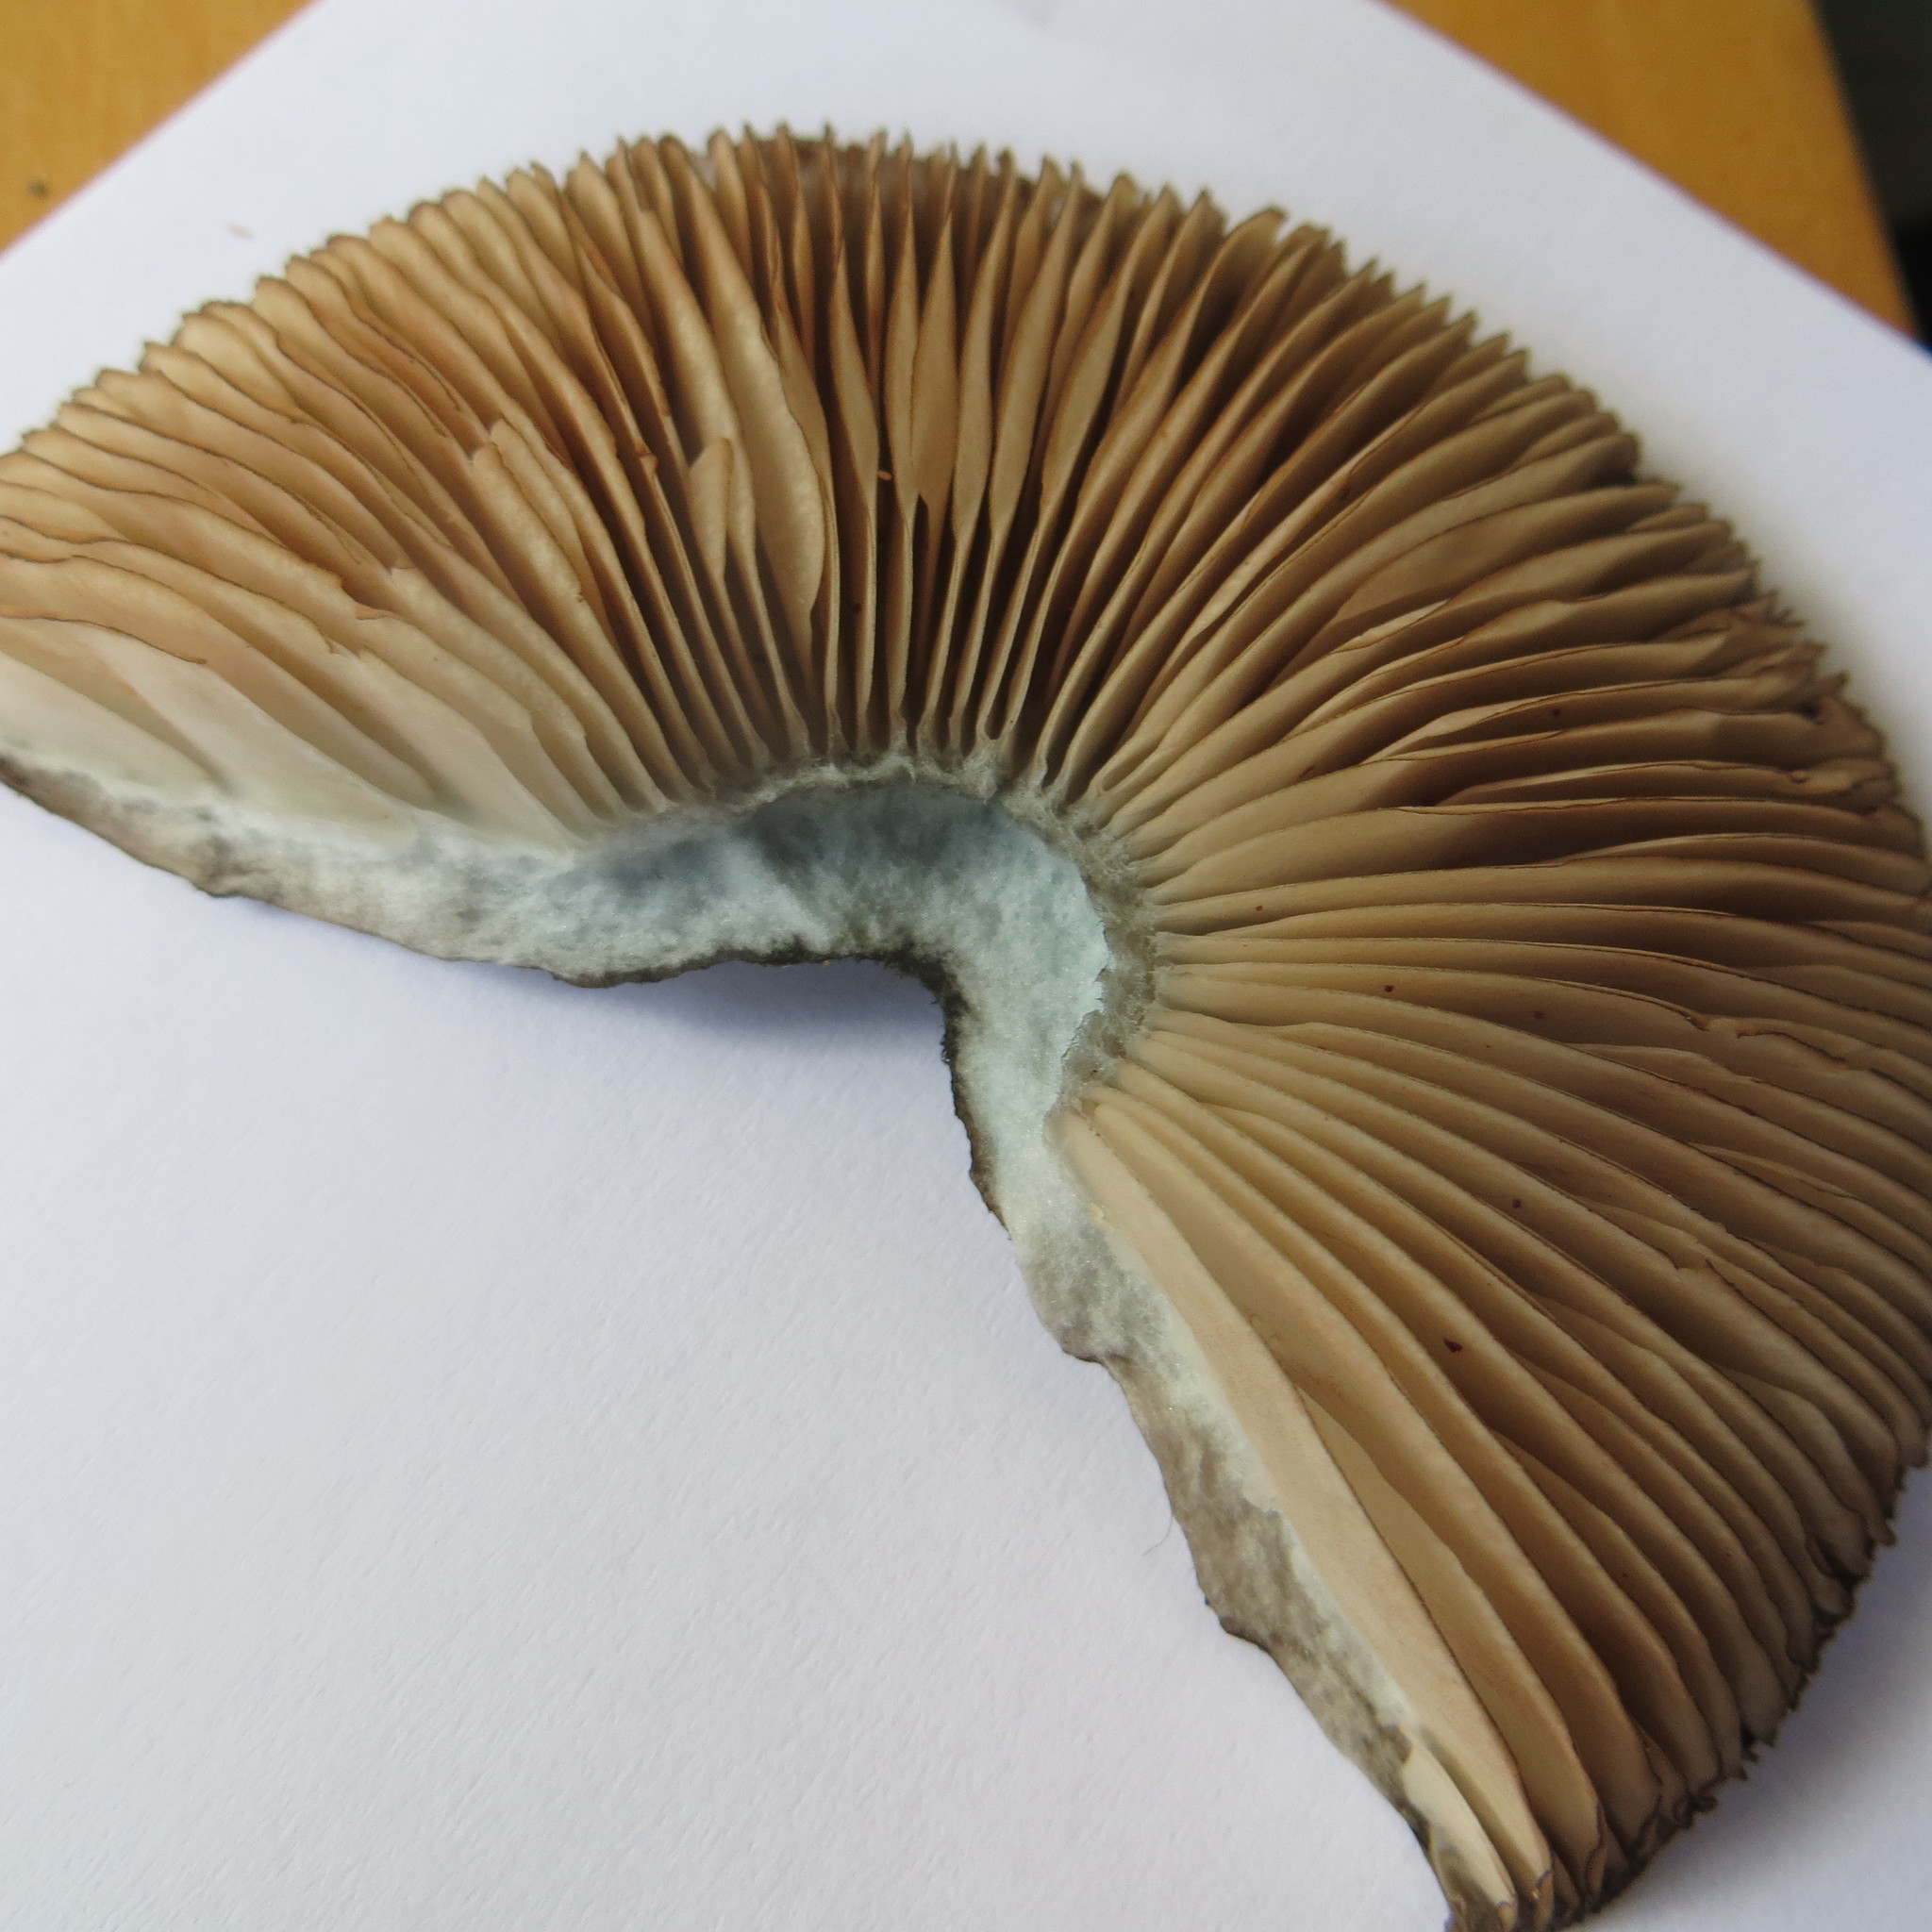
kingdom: Fungi
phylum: Basidiomycota
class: Agaricomycetes
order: Agaricales
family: Pluteaceae
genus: Pluteus
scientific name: Pluteus velutinornatus
